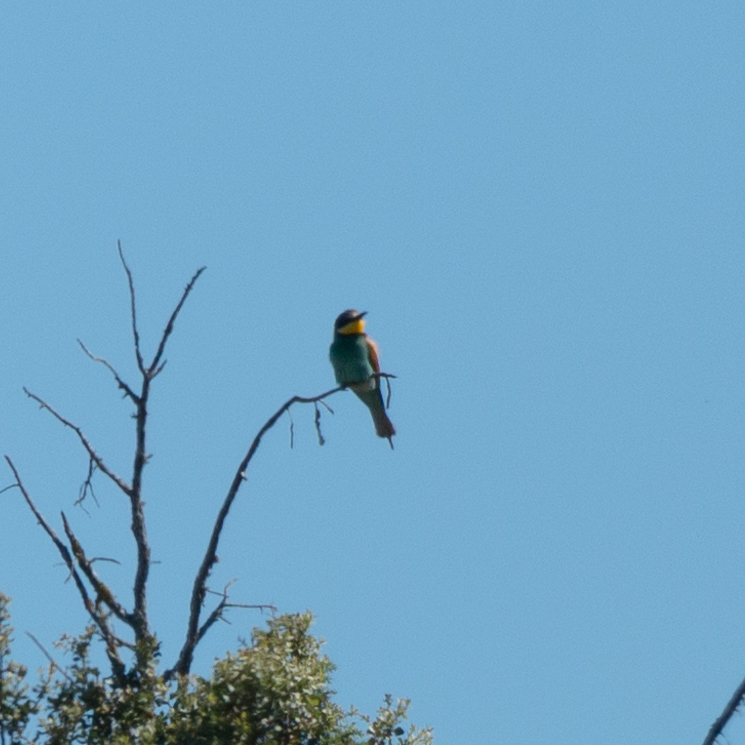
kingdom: Animalia
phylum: Chordata
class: Aves
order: Coraciiformes
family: Meropidae
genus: Merops
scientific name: Merops apiaster
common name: European bee-eater
